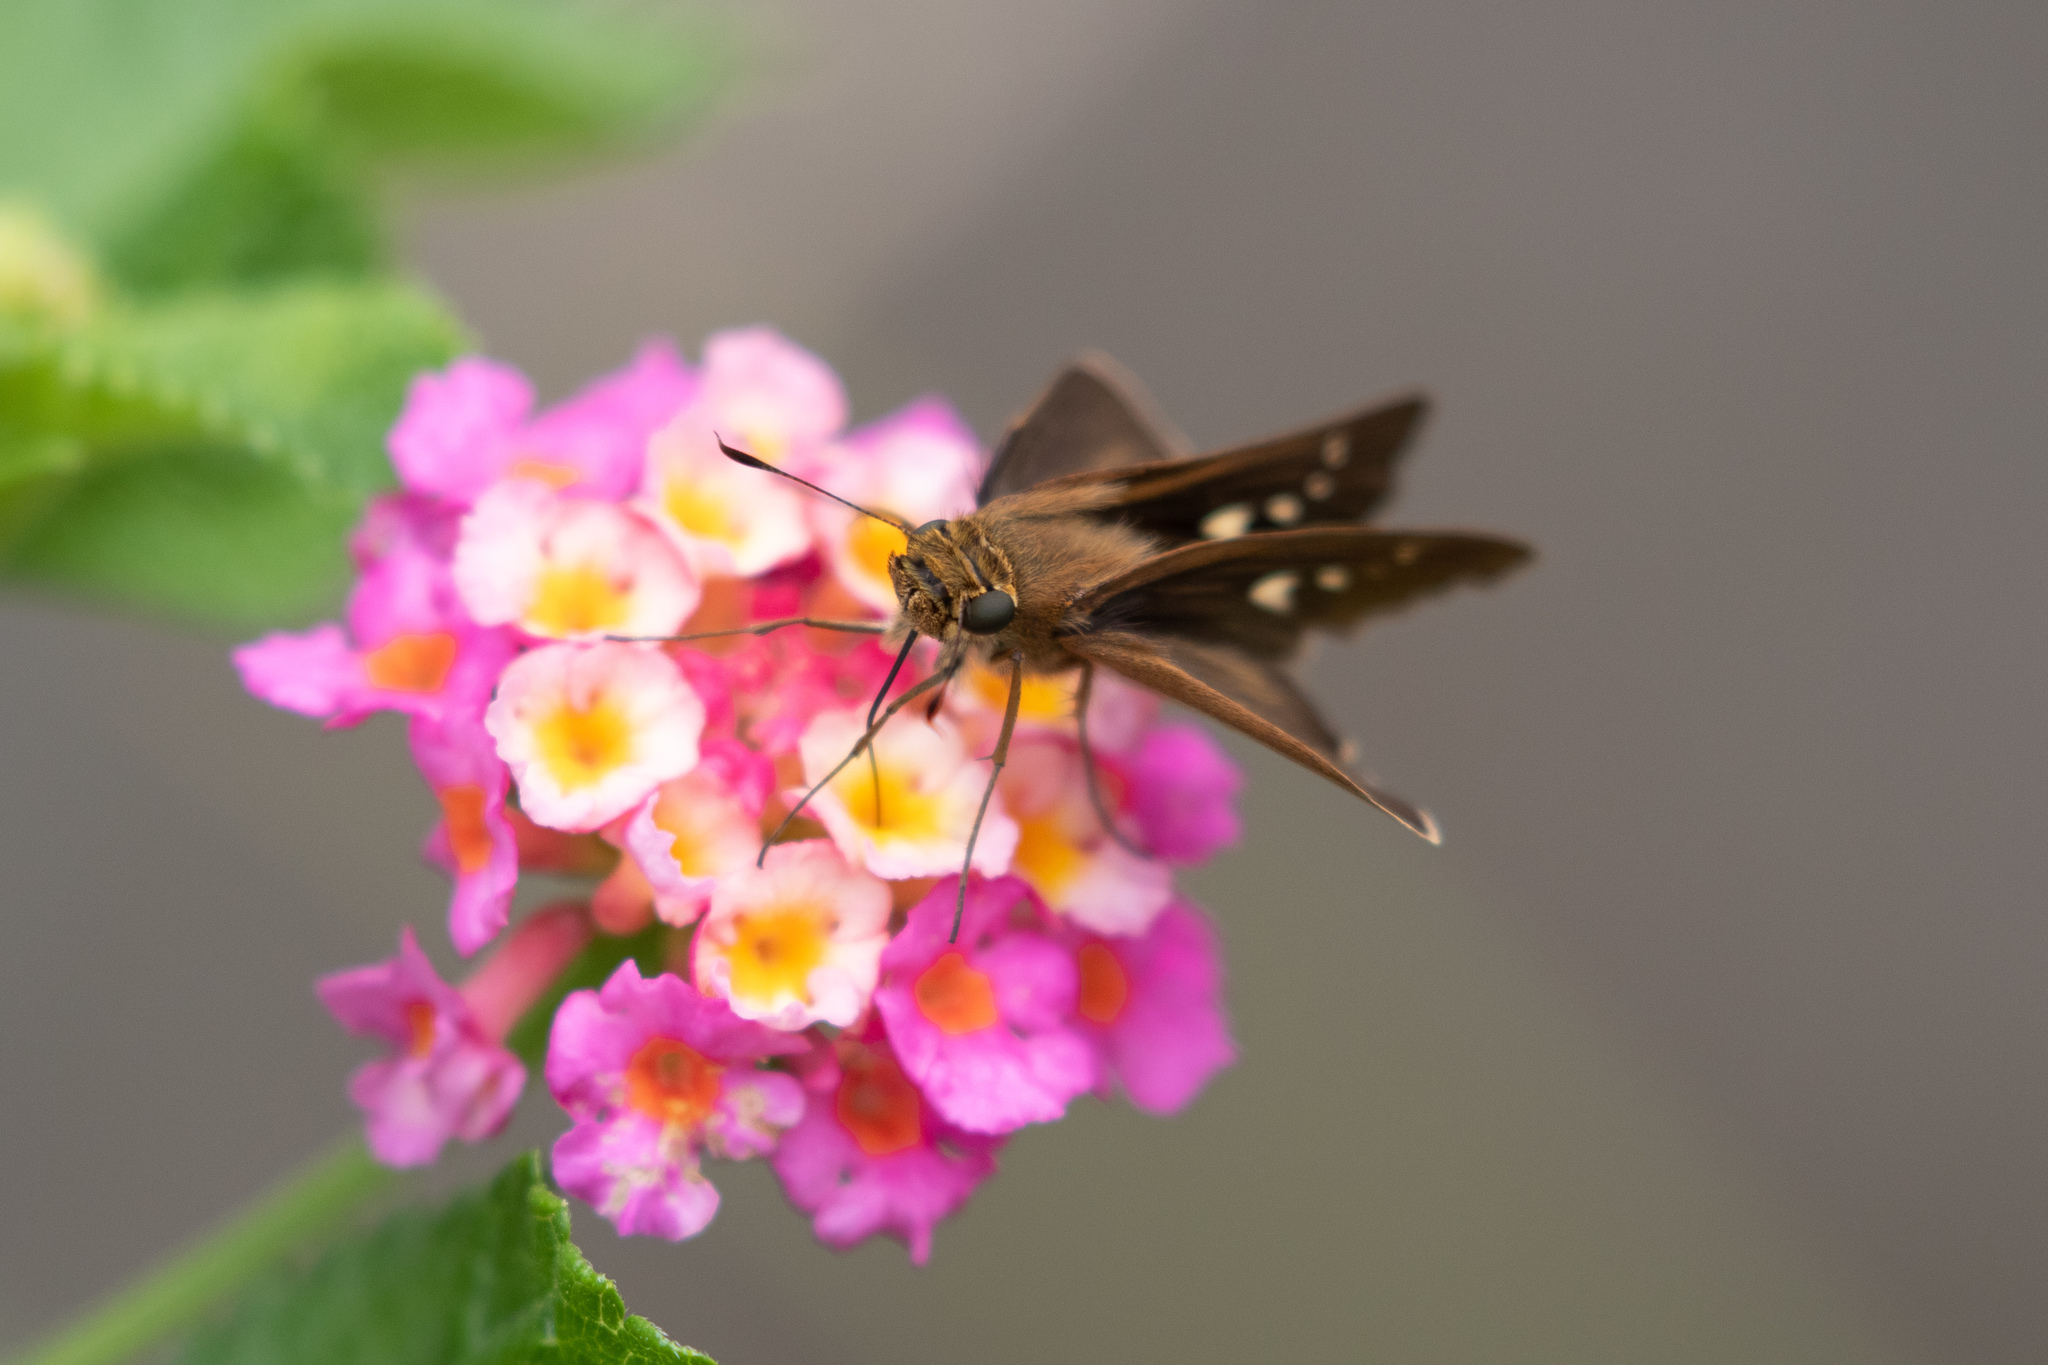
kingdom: Animalia
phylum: Arthropoda
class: Insecta
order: Lepidoptera
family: Hesperiidae
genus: Panoquina
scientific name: Panoquina ocola
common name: Ocola skipper
